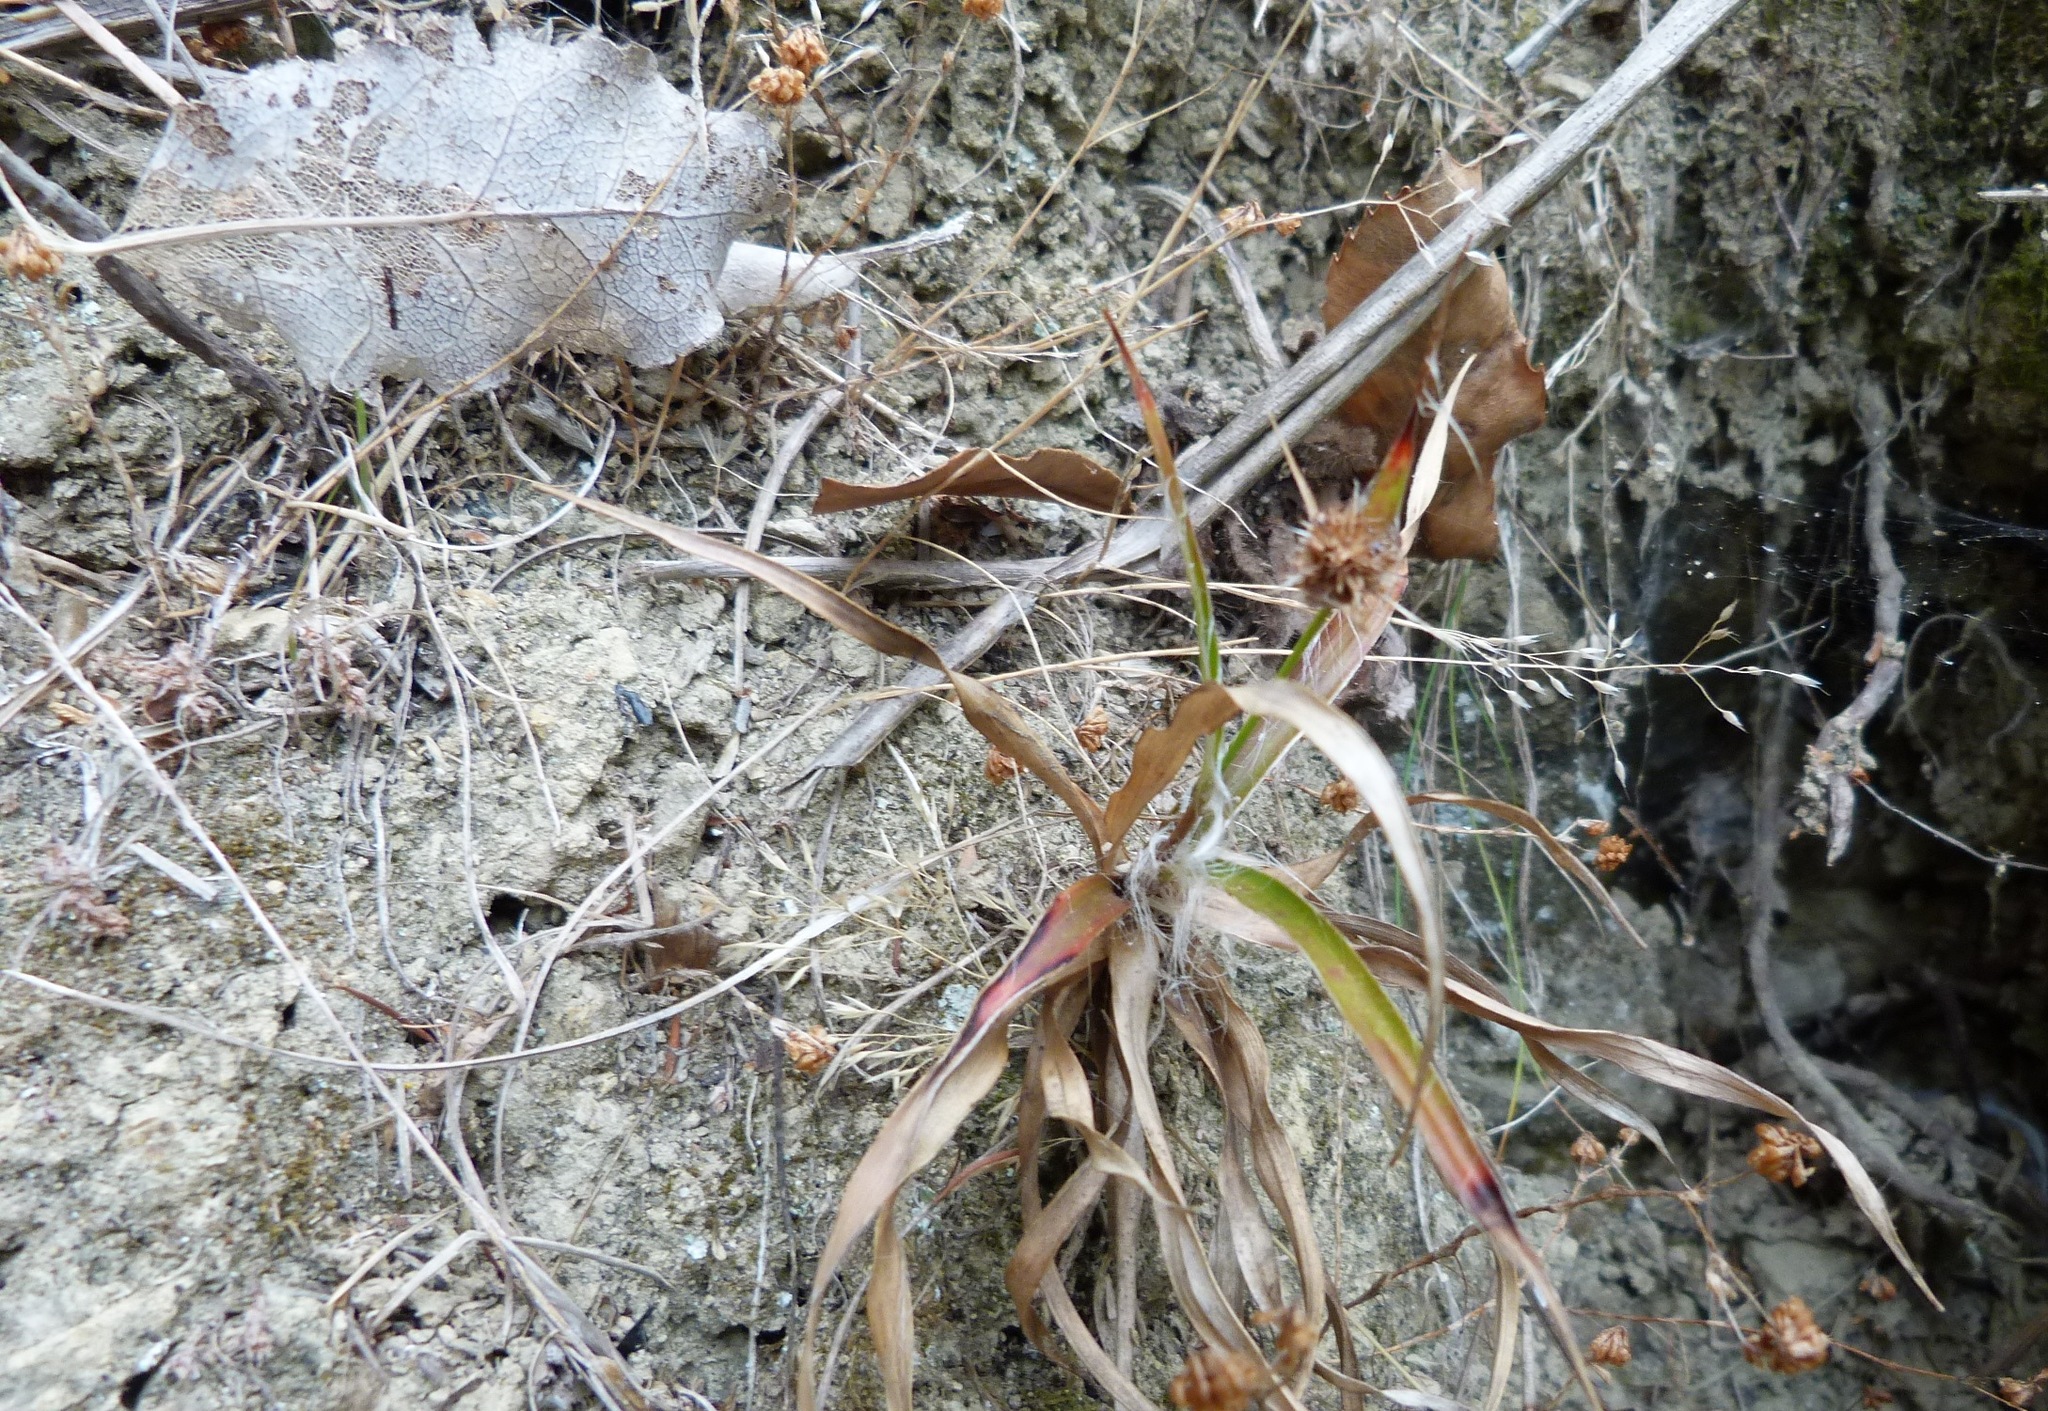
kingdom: Plantae
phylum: Tracheophyta
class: Liliopsida
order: Poales
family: Juncaceae
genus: Luzula
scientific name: Luzula banksiana
